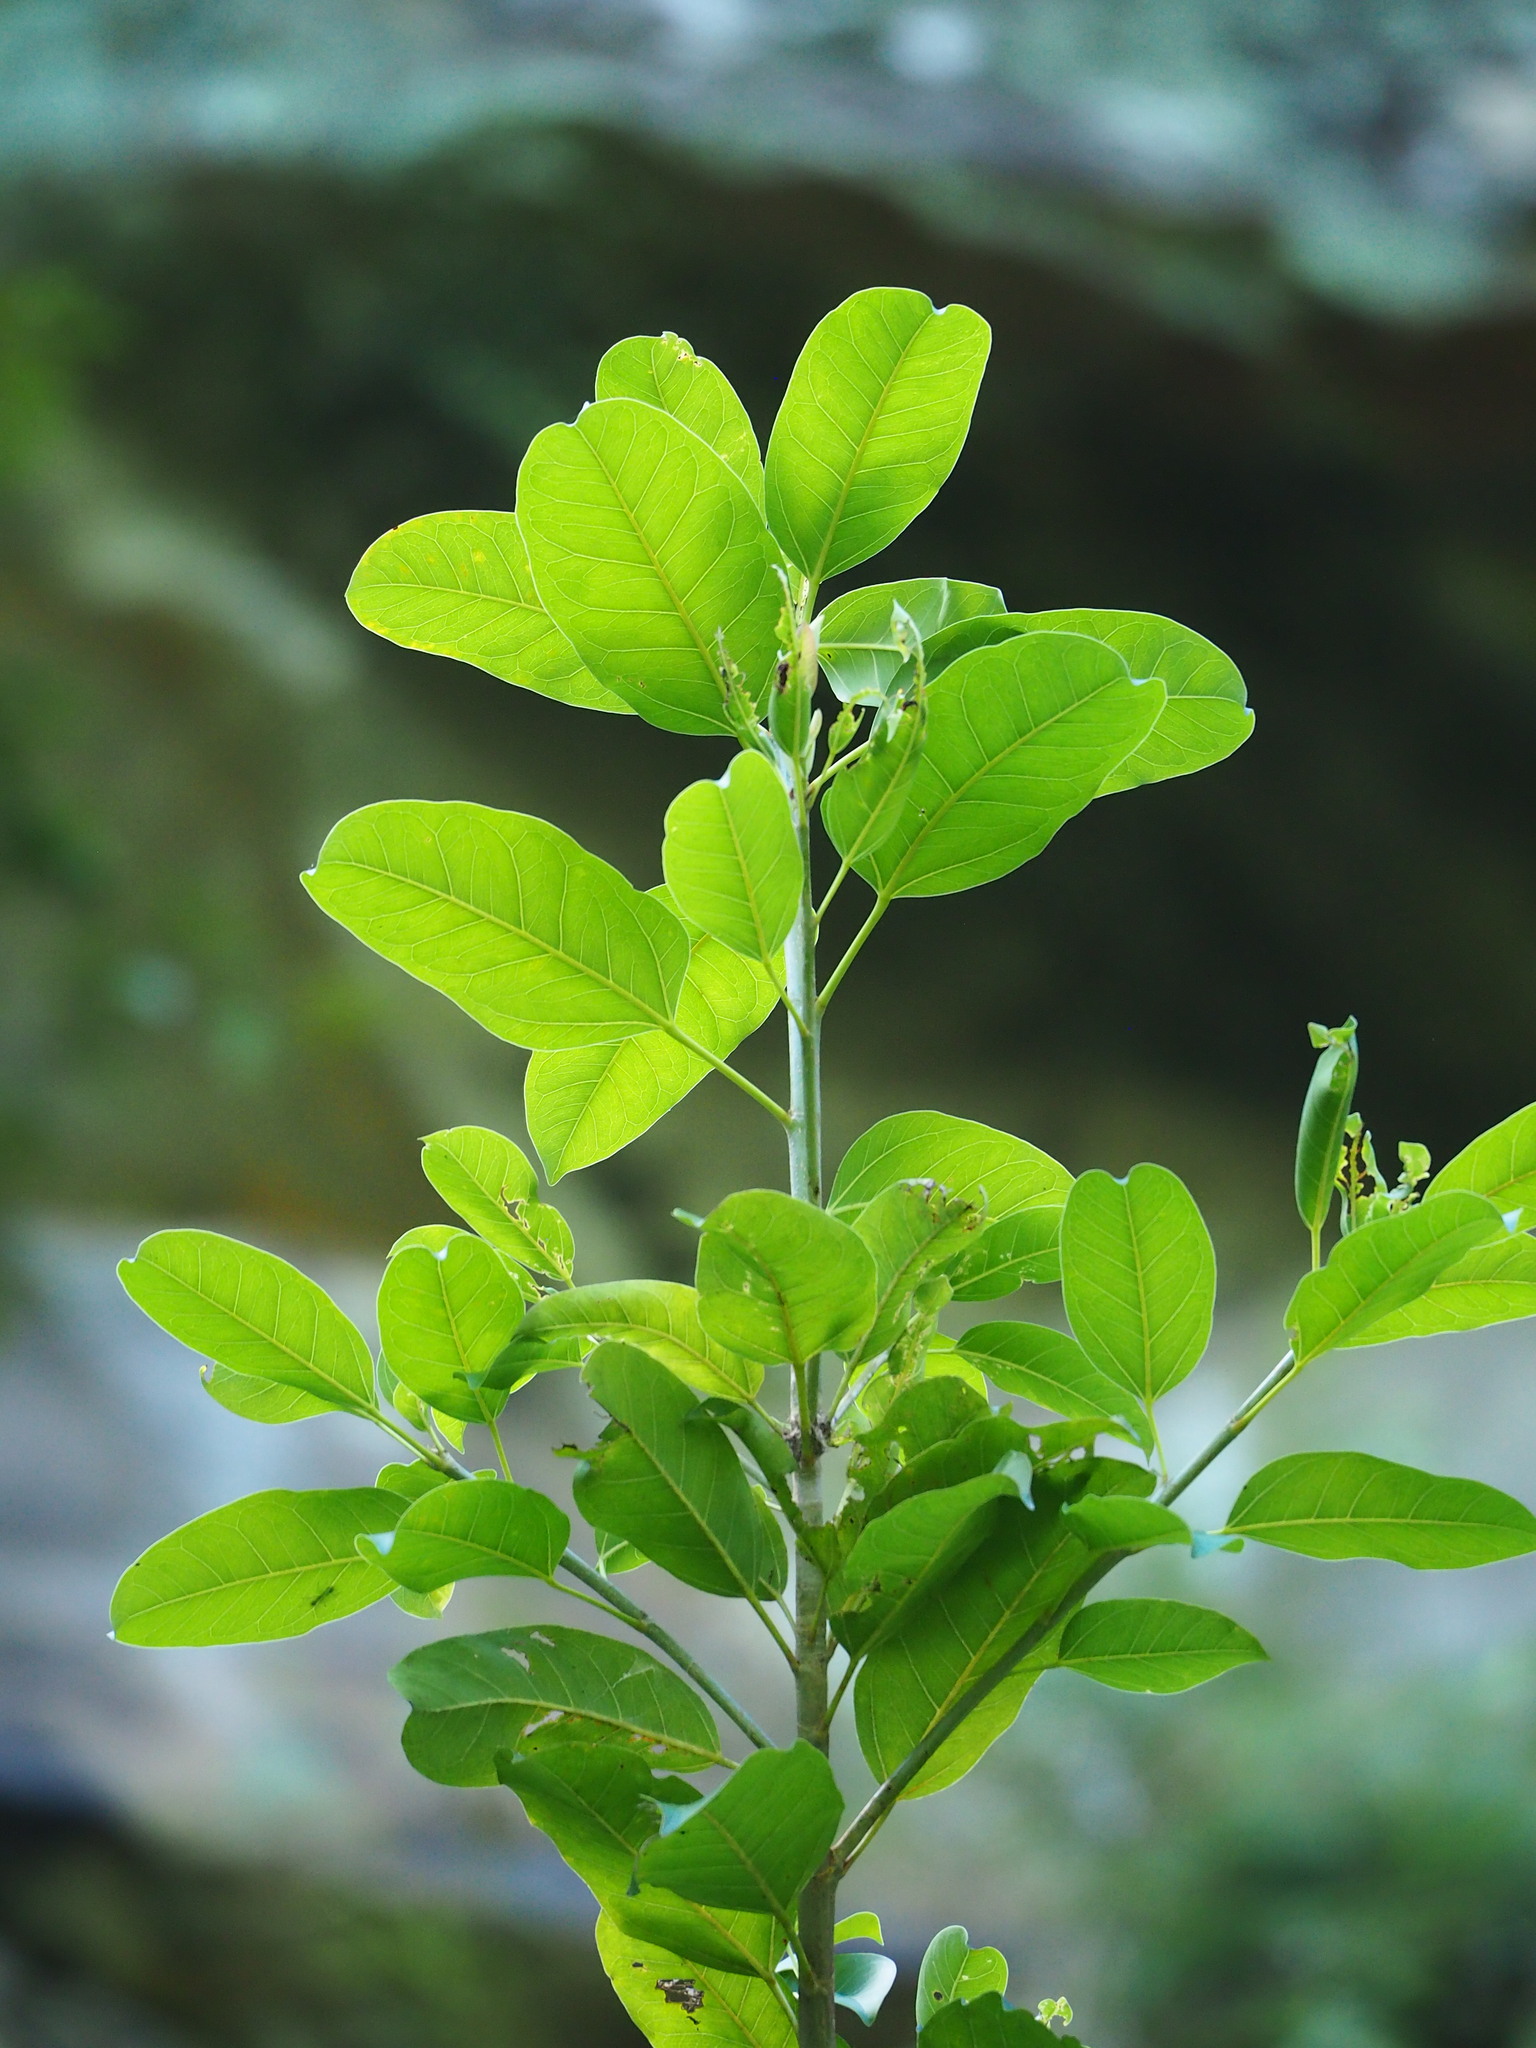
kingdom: Plantae
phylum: Tracheophyta
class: Magnoliopsida
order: Rosales
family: Moraceae
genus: Ficus
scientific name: Ficus subpisocarpa
